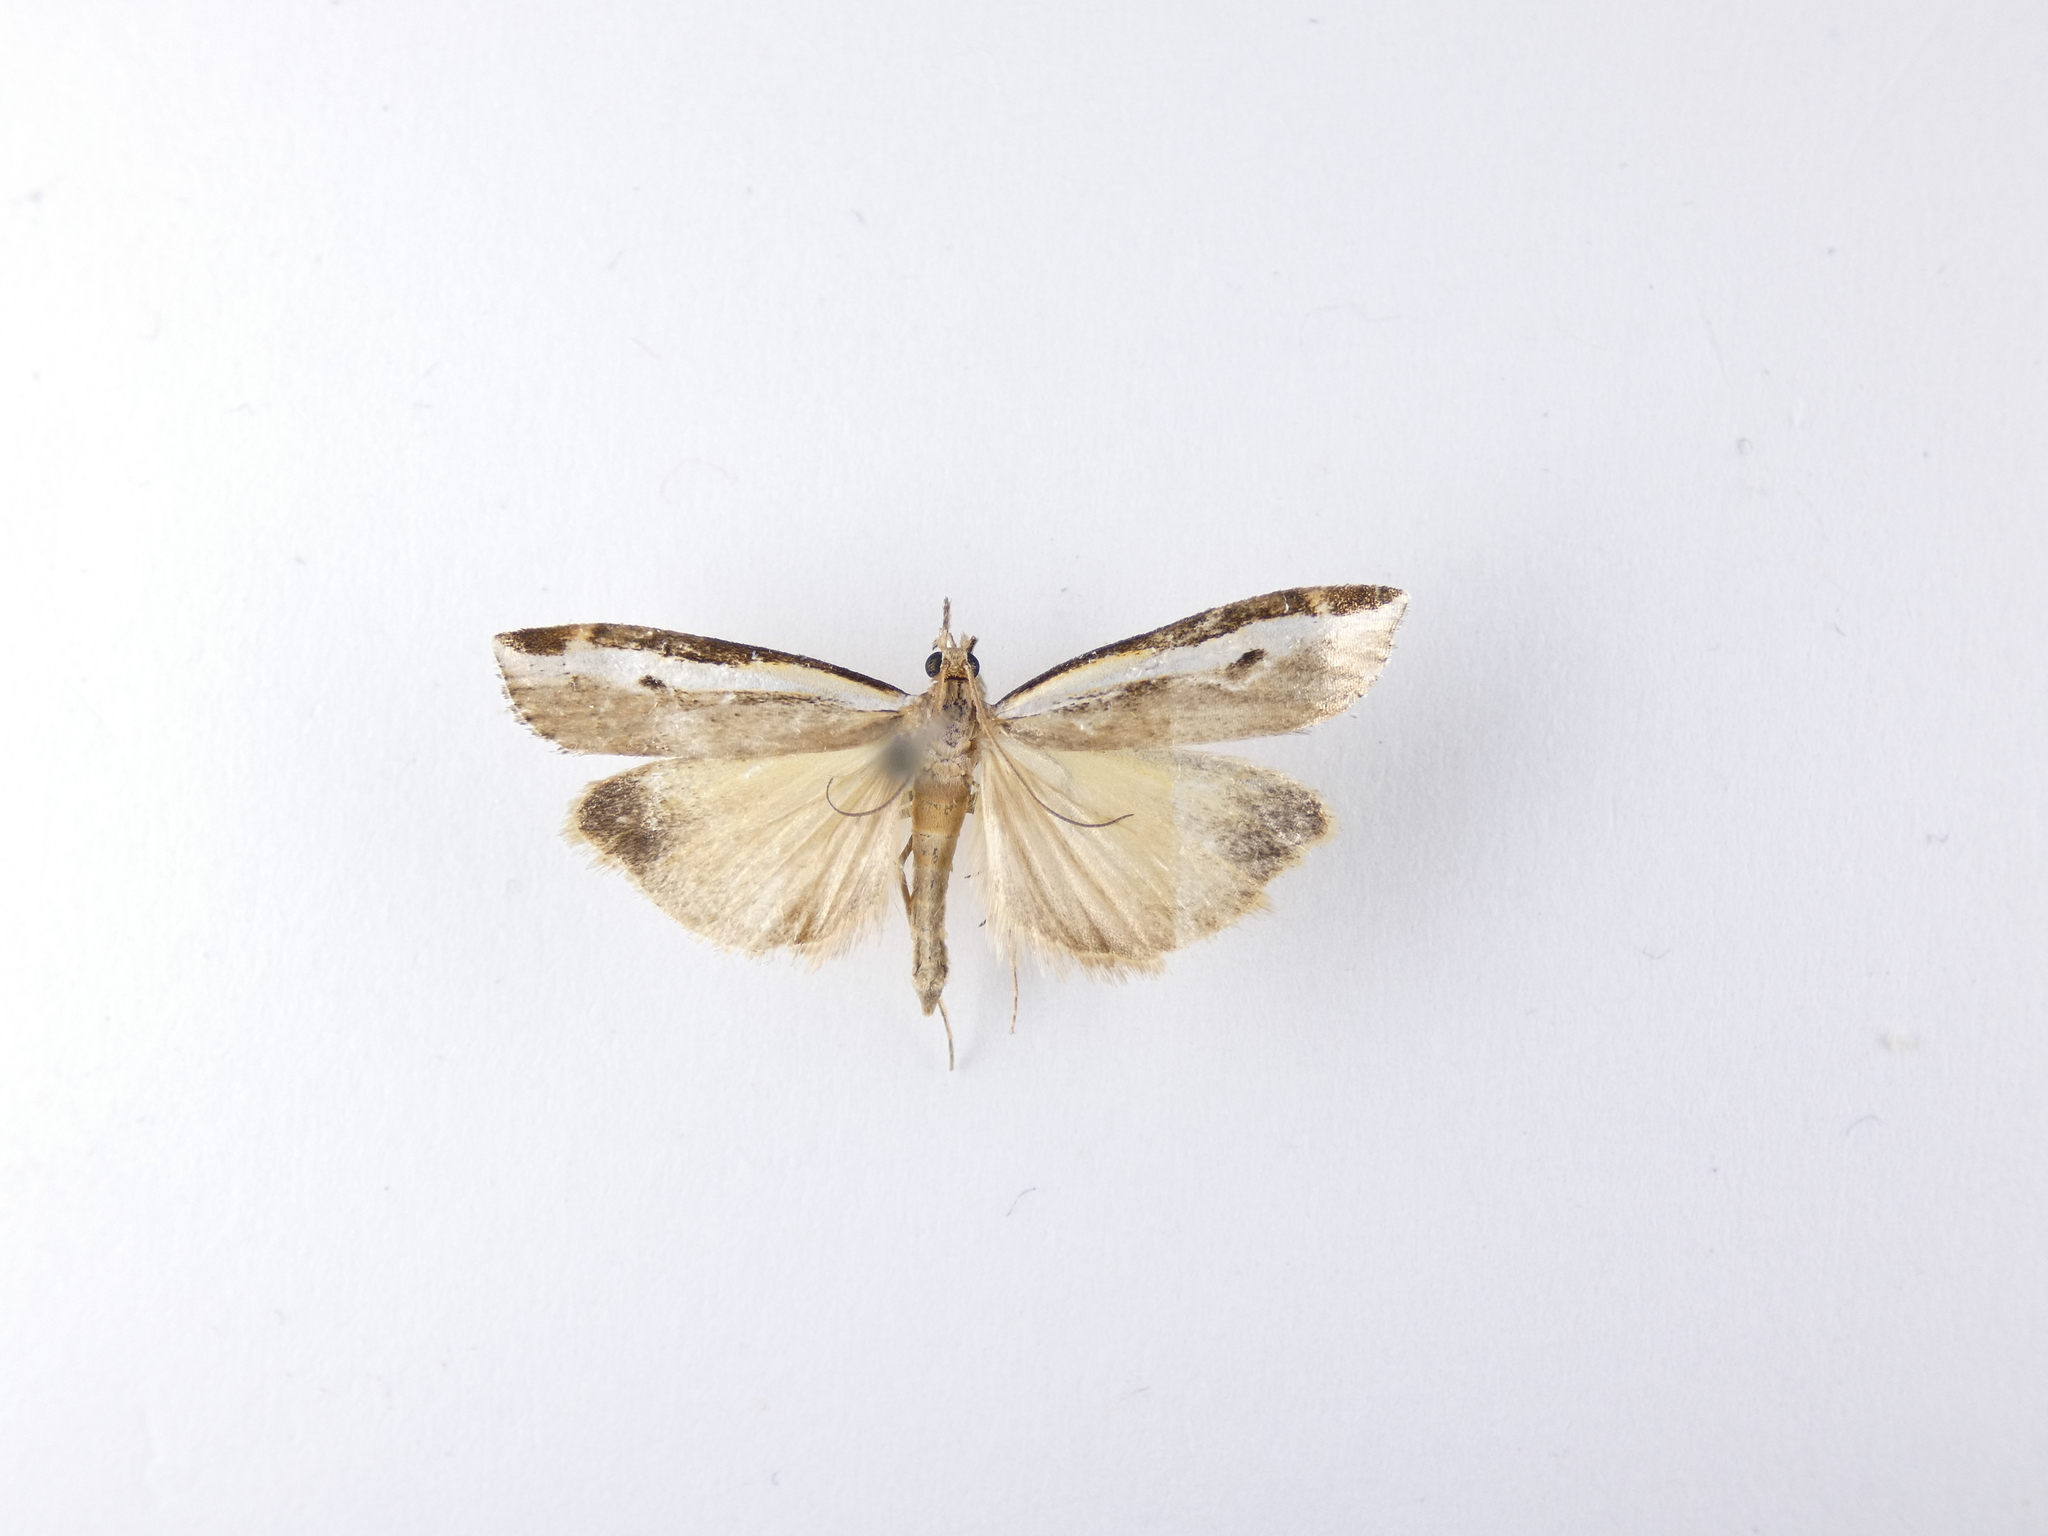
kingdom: Animalia
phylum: Arthropoda
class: Insecta
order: Lepidoptera
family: Crambidae
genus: Orocrambus
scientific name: Orocrambus flexuosellus
